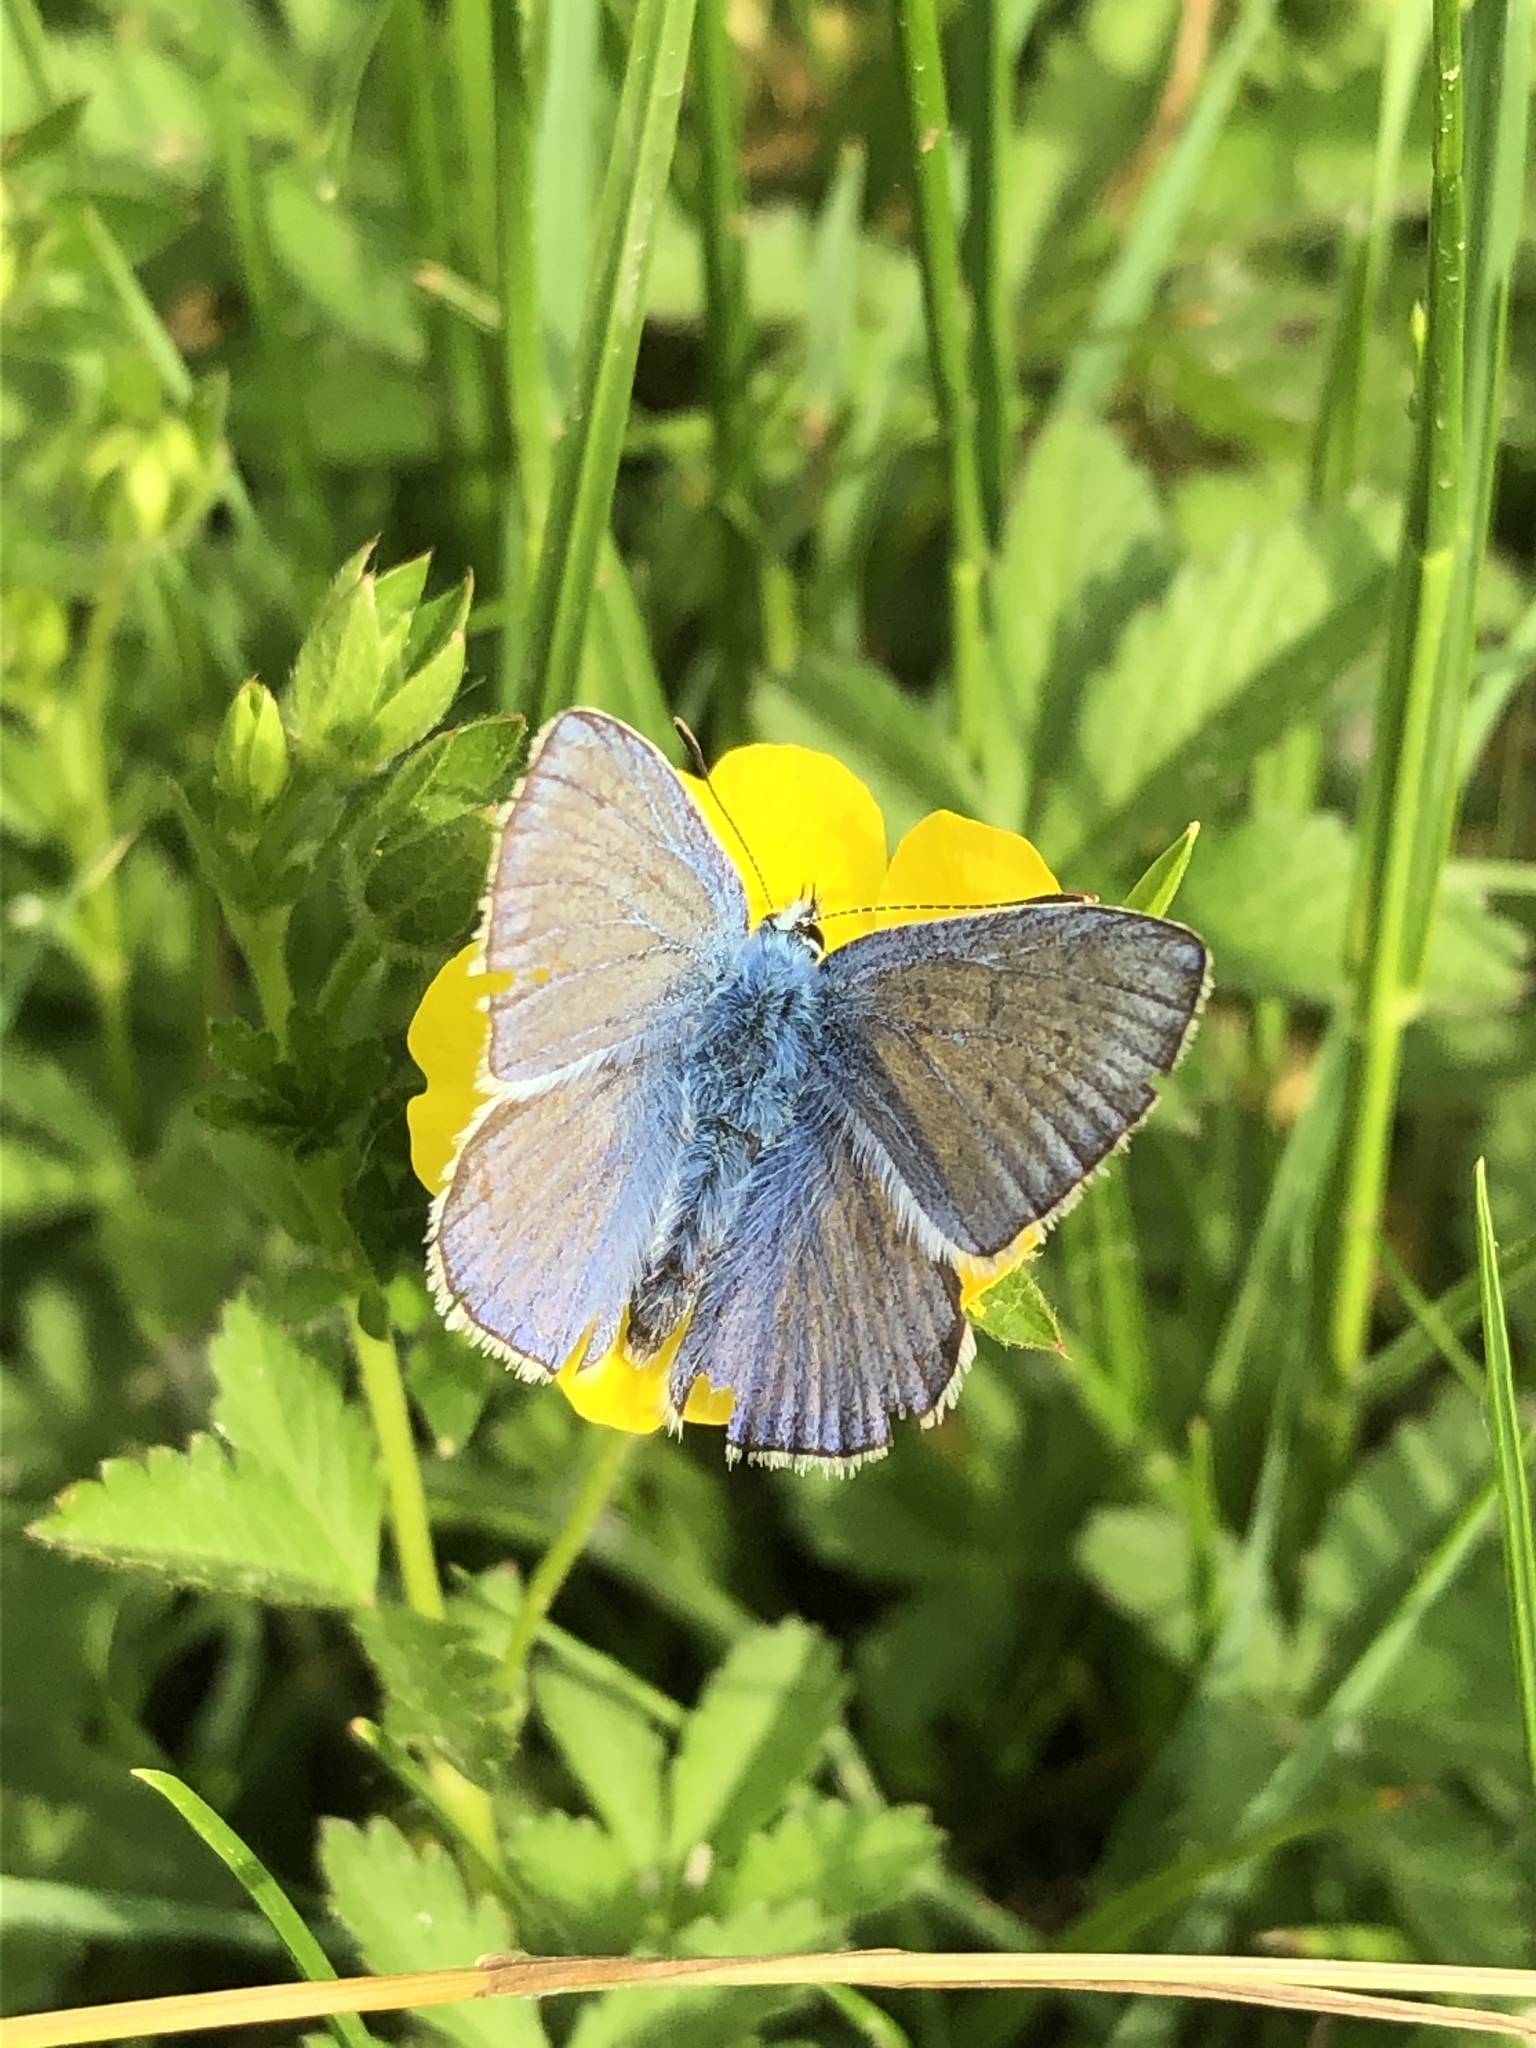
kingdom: Animalia
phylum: Arthropoda
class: Insecta
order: Lepidoptera
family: Lycaenidae
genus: Polyommatus
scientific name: Polyommatus icarus
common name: Common blue
